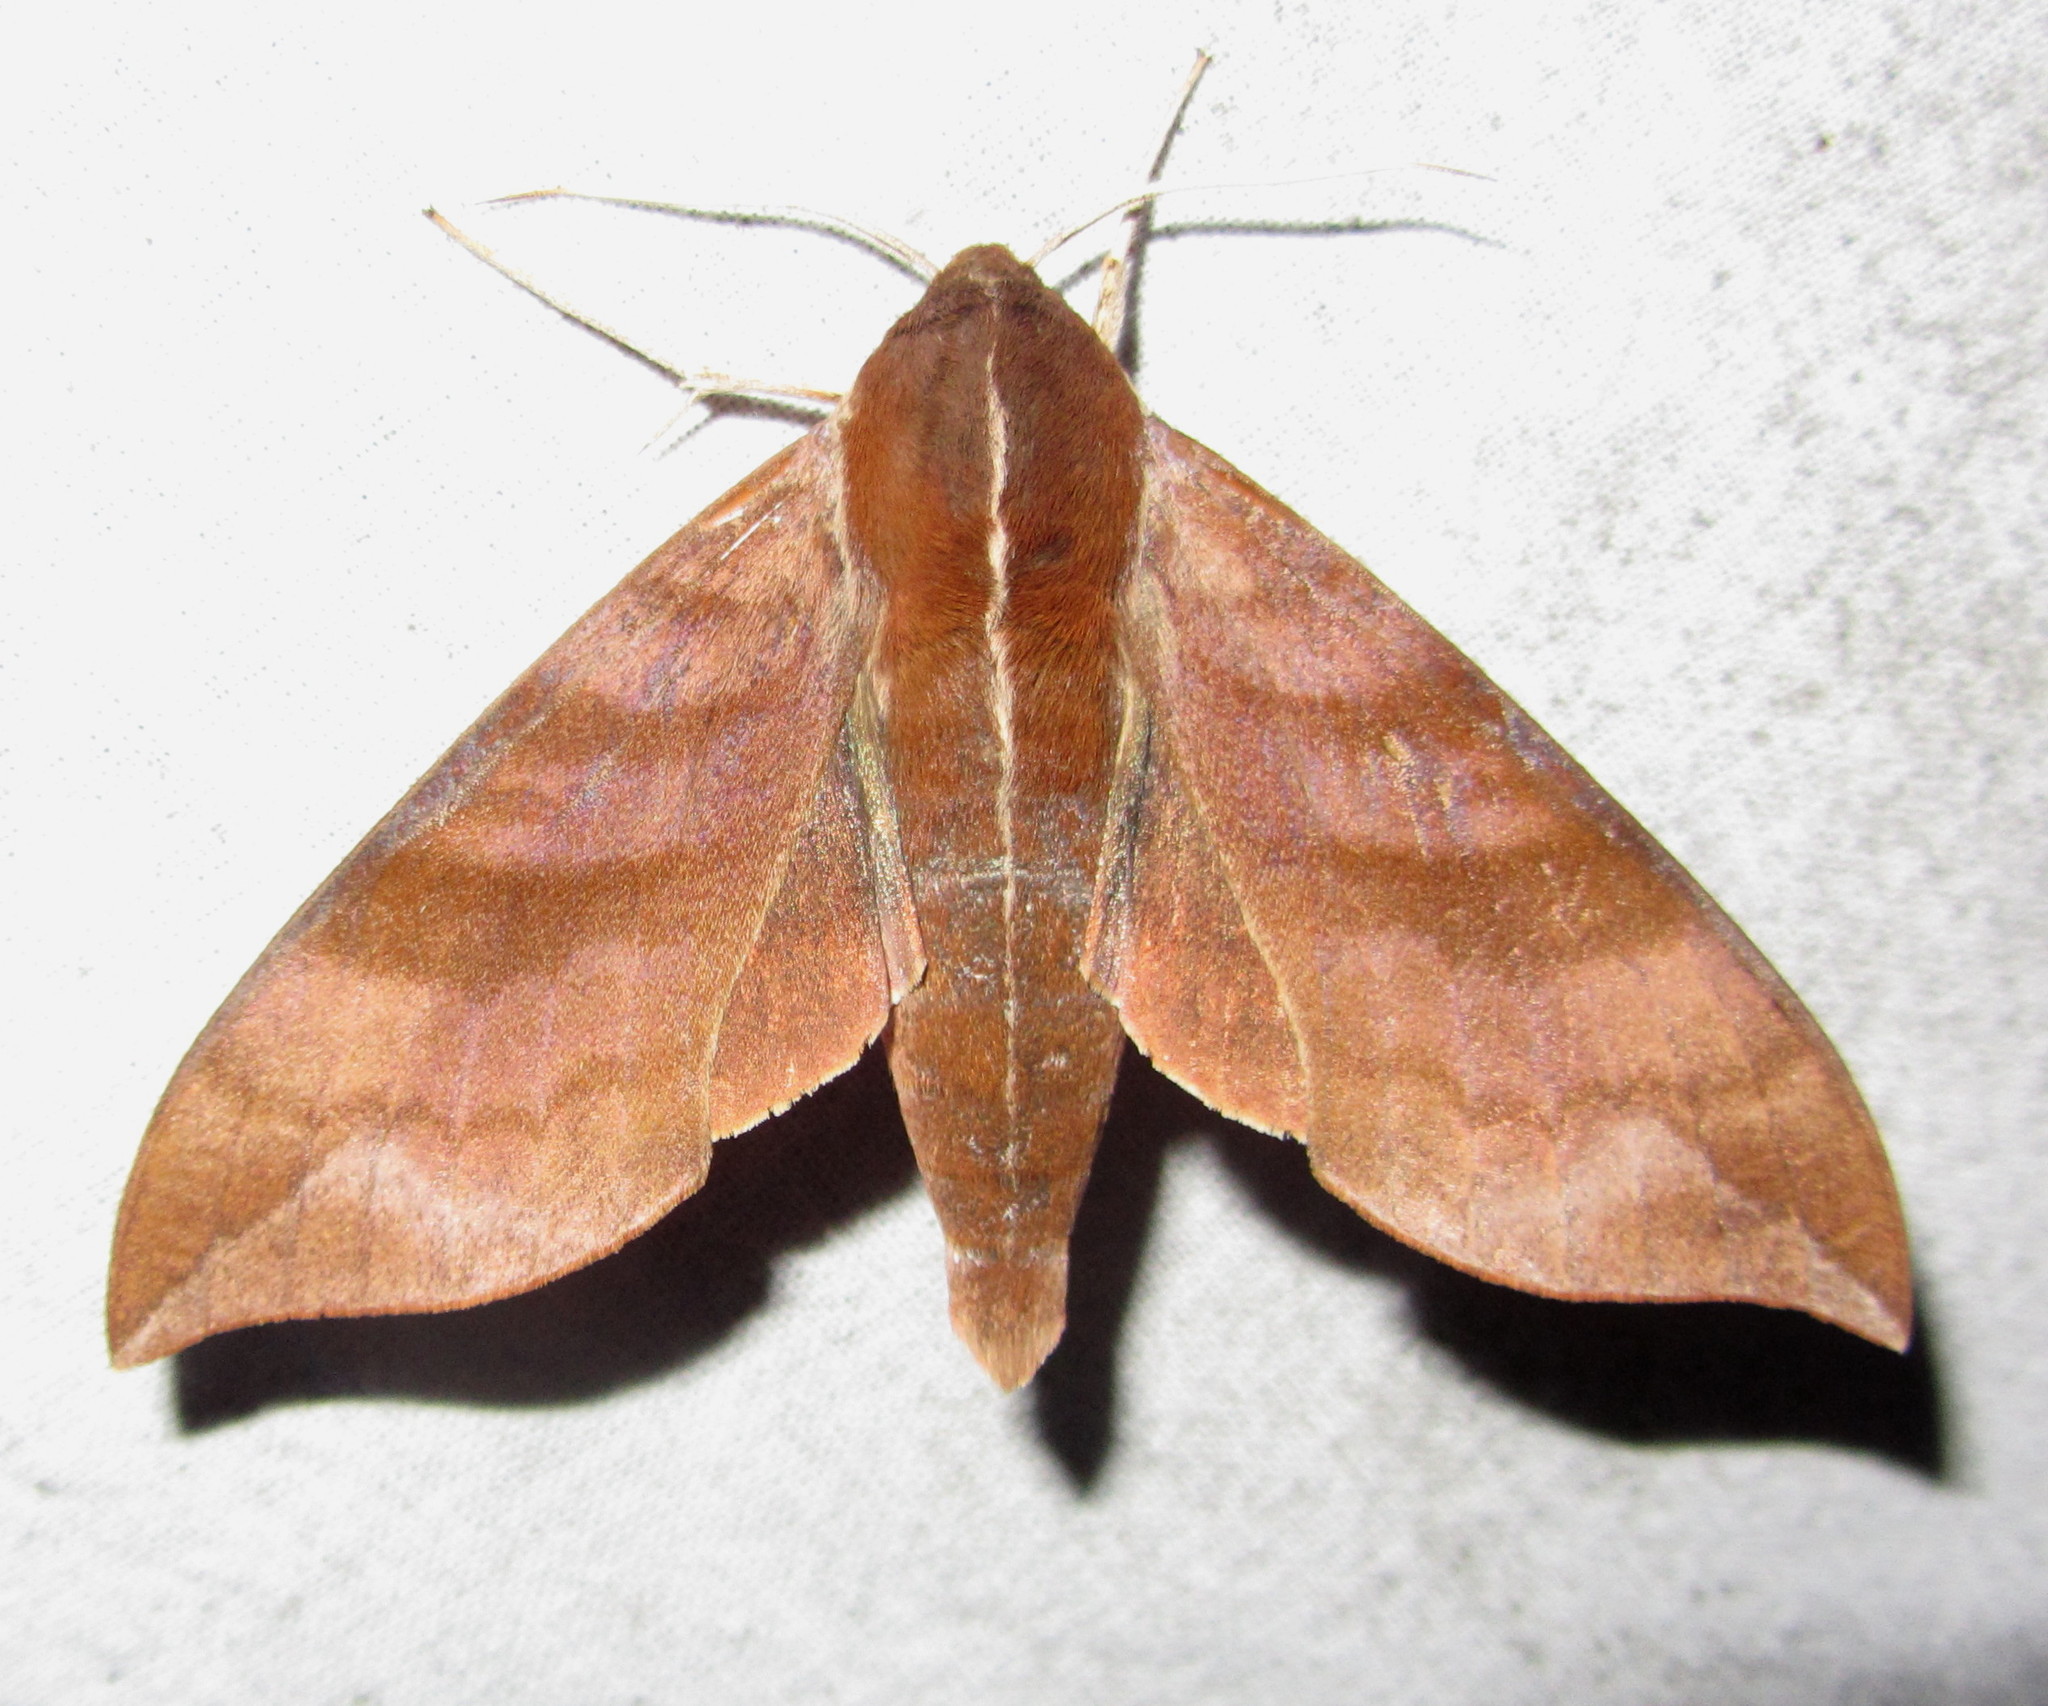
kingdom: Animalia
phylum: Arthropoda
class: Insecta
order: Lepidoptera
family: Sphingidae
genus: Ampelophaga
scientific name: Ampelophaga rubiginosa
